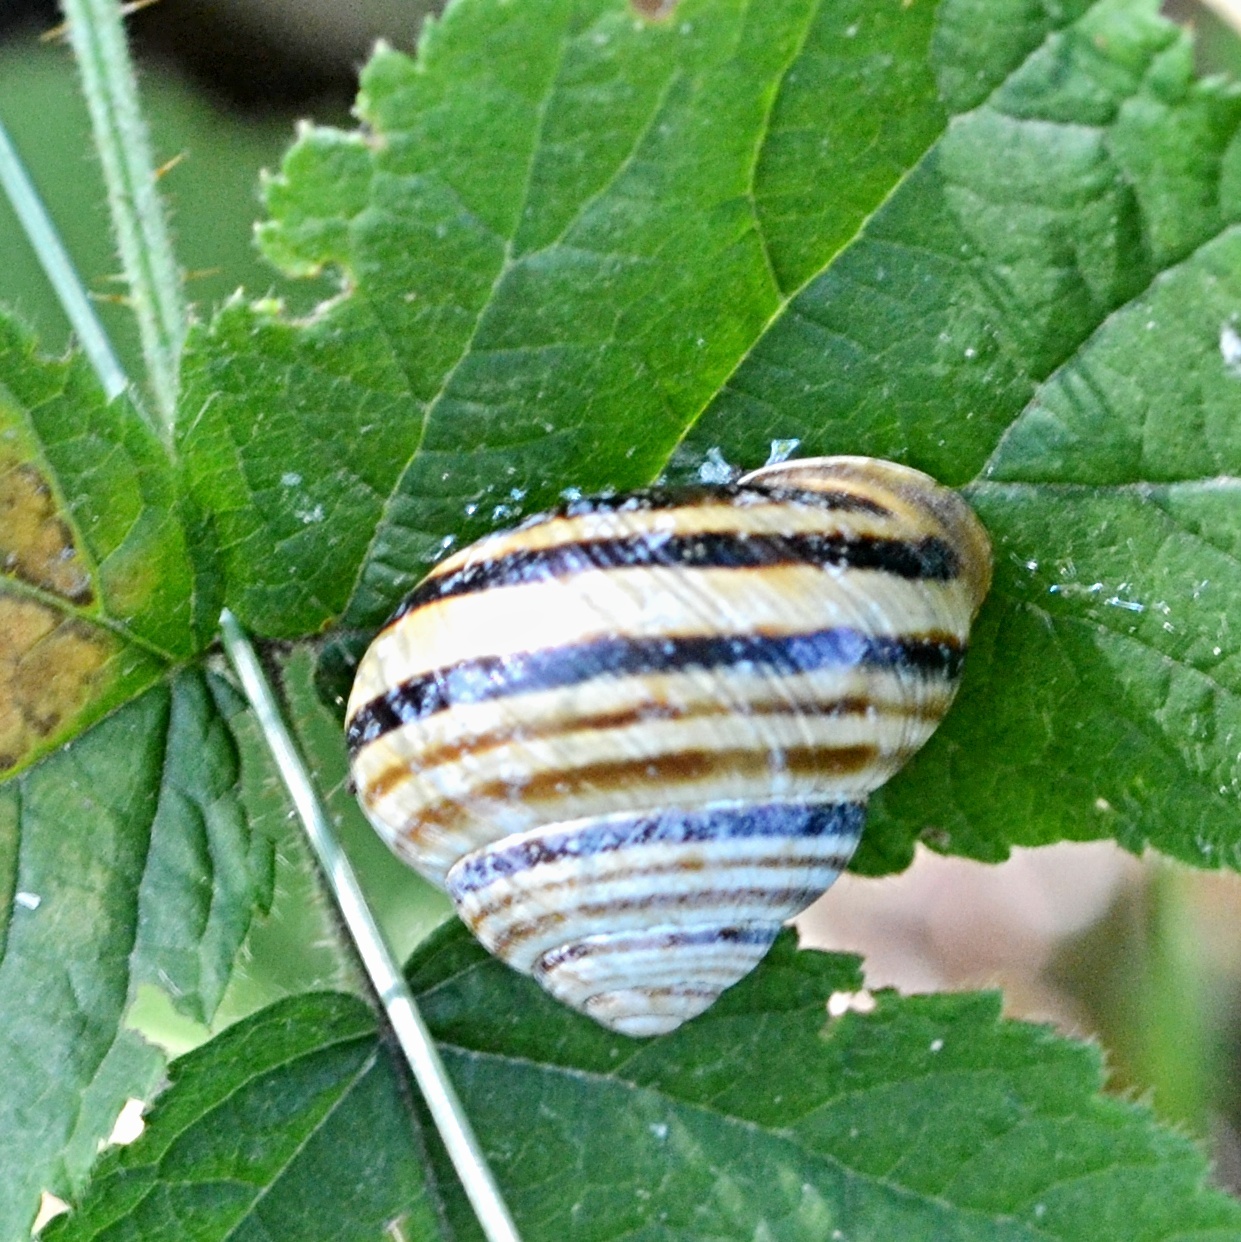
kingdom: Animalia
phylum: Mollusca
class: Gastropoda
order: Stylommatophora
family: Helicidae
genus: Caucasotachea
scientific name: Caucasotachea vindobonensis
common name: European helicid land snail
